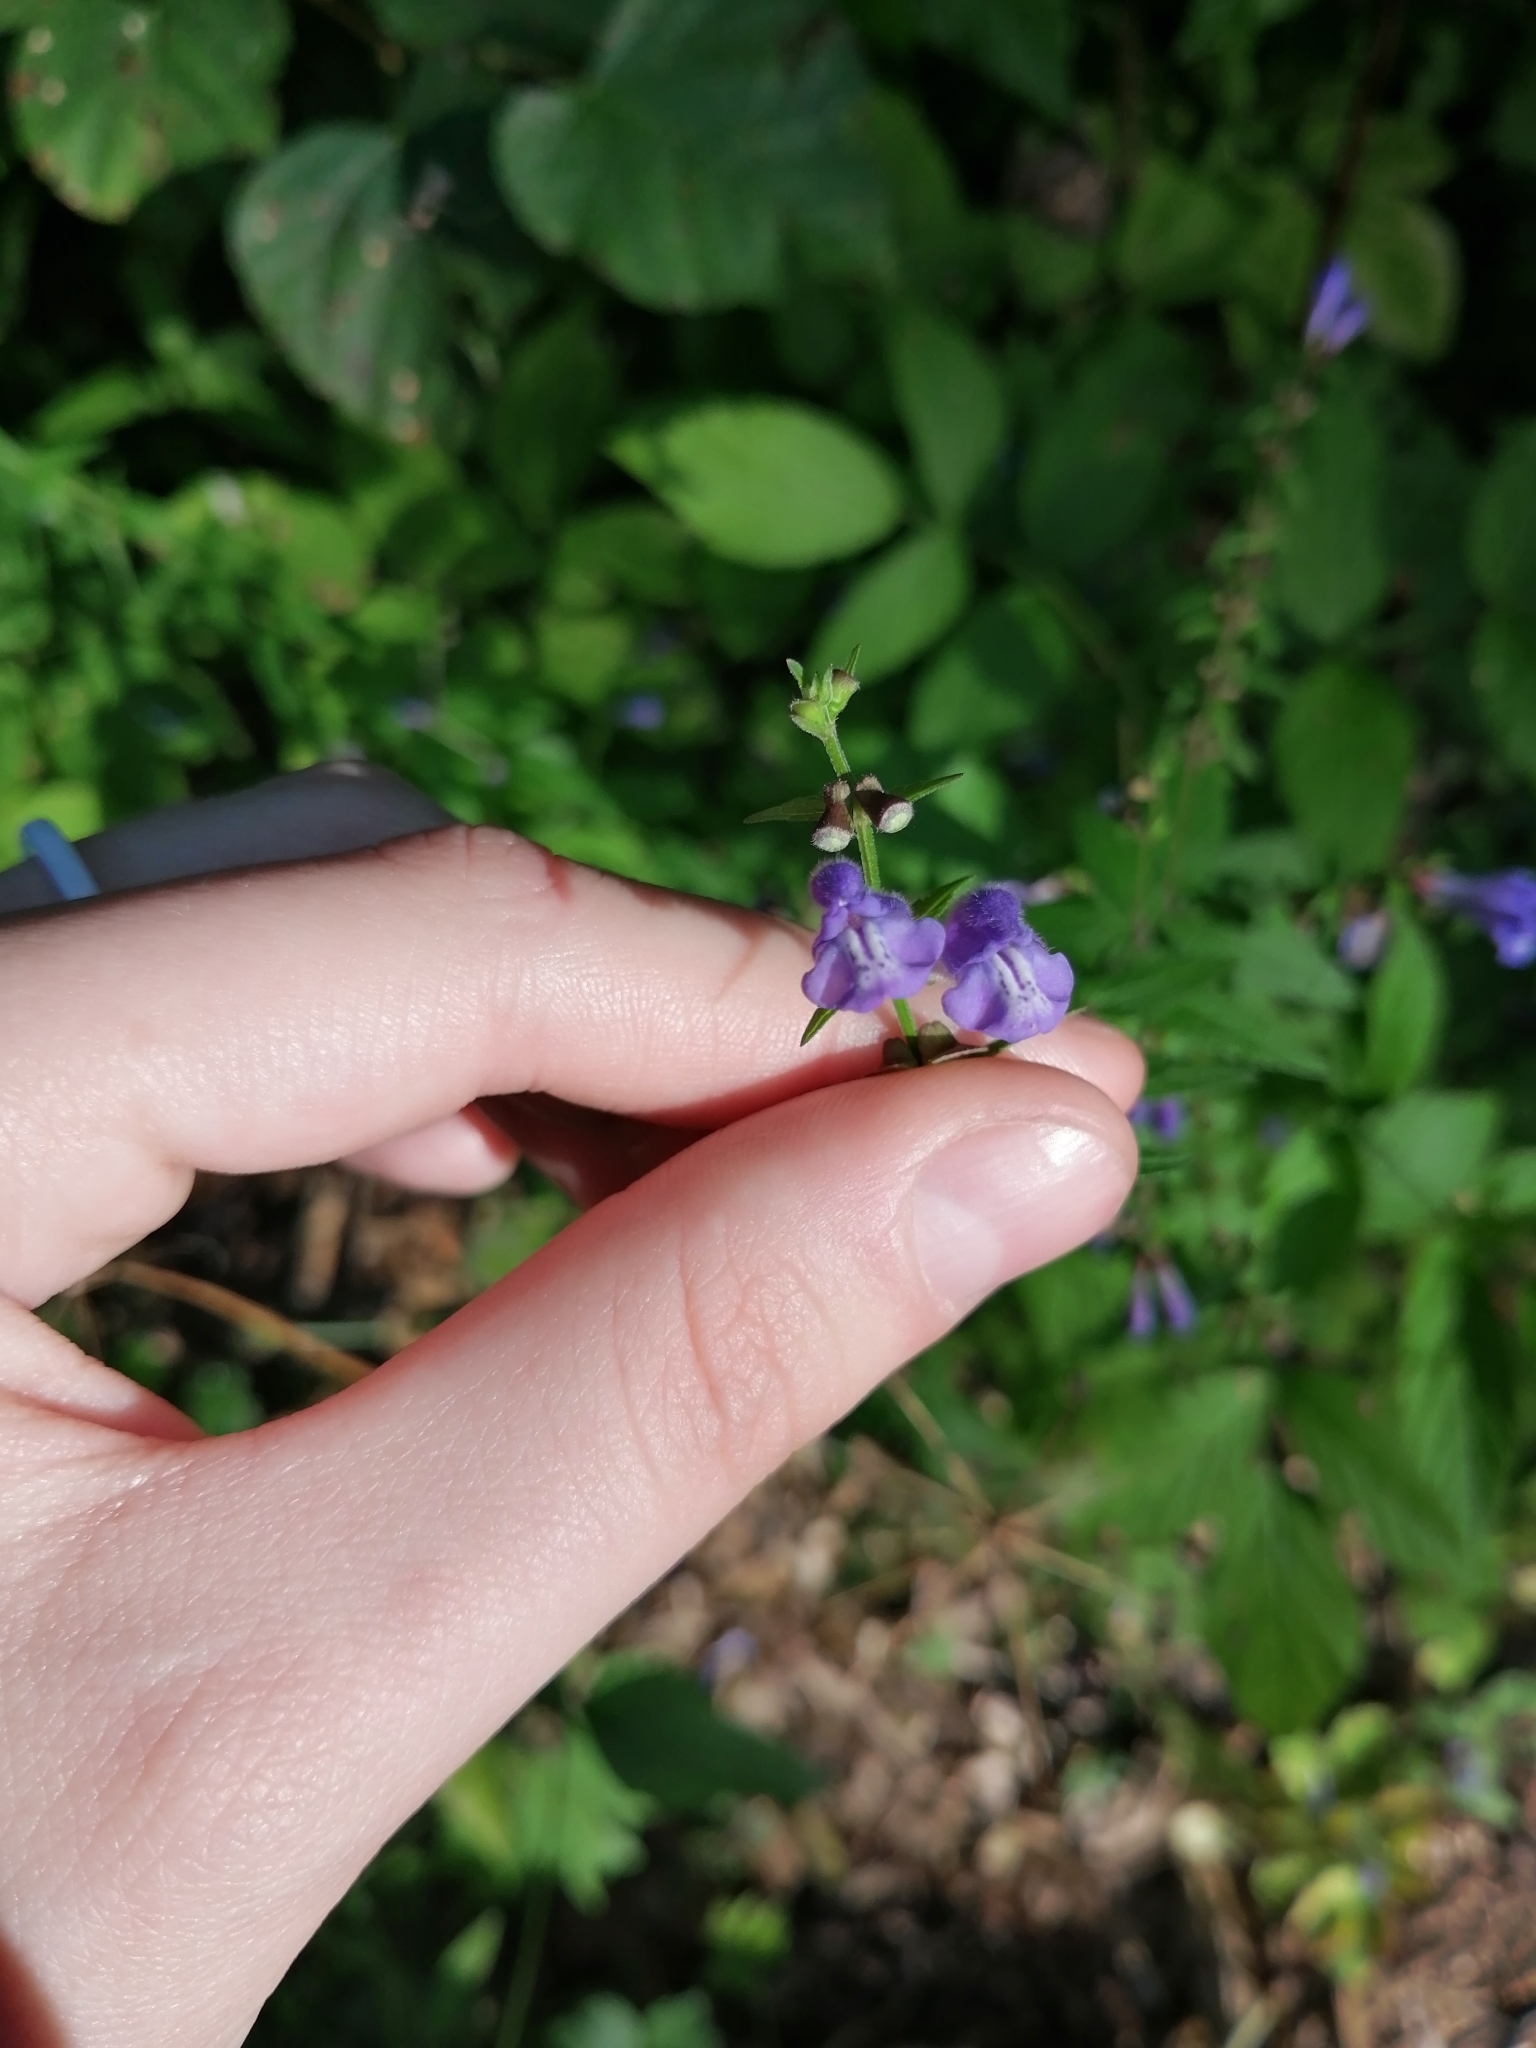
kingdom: Plantae
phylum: Tracheophyta
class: Magnoliopsida
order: Lamiales
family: Lamiaceae
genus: Scutellaria
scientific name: Scutellaria galericulata
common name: Skullcap
